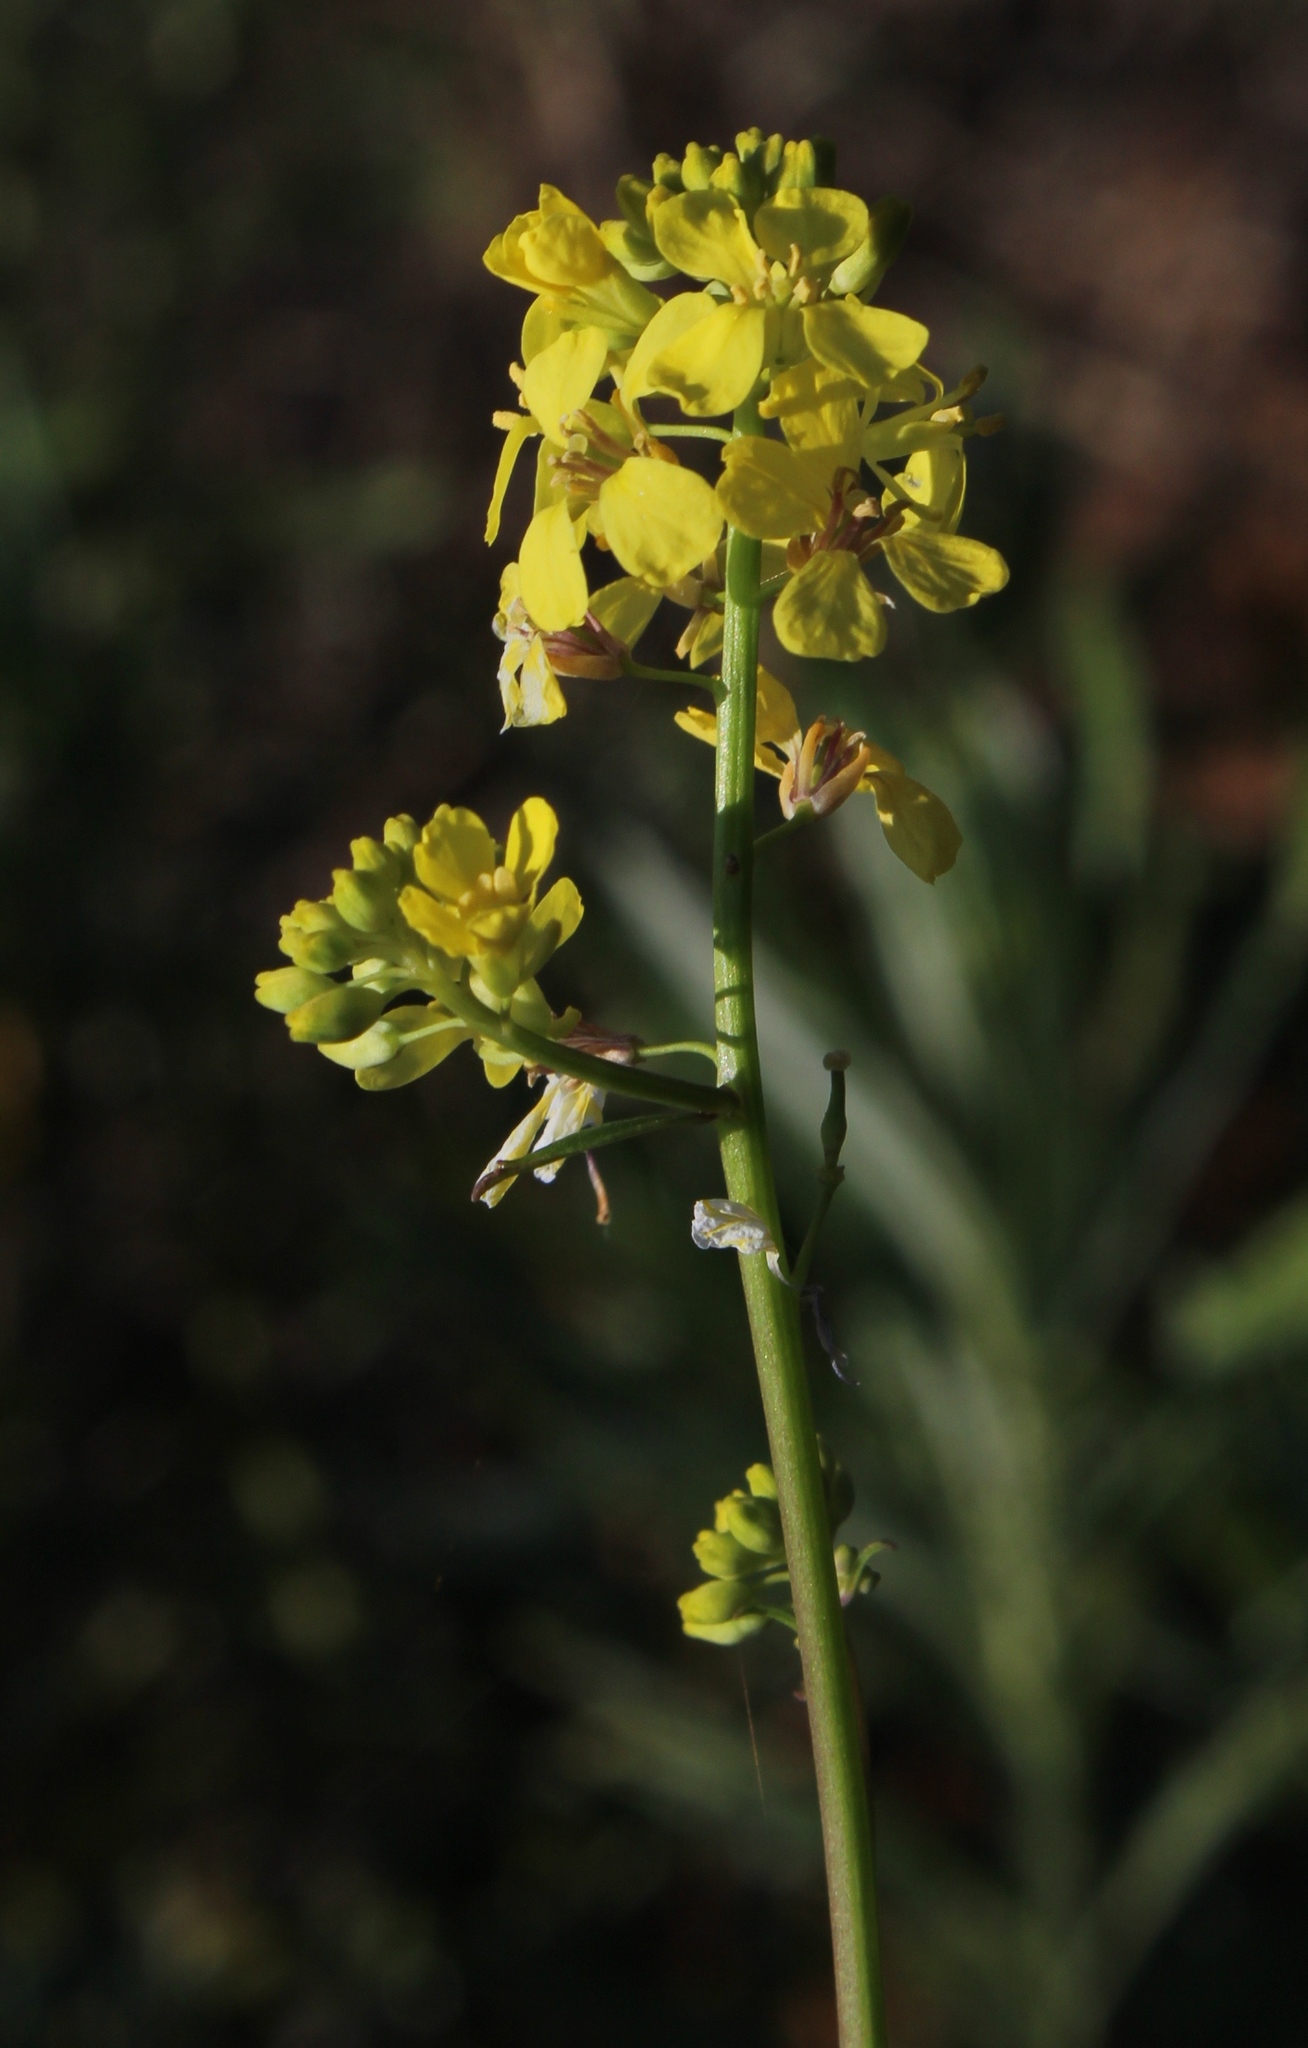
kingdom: Plantae
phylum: Tracheophyta
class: Magnoliopsida
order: Brassicales
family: Brassicaceae
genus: Rapistrum
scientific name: Rapistrum rugosum
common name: Annual bastardcabbage
